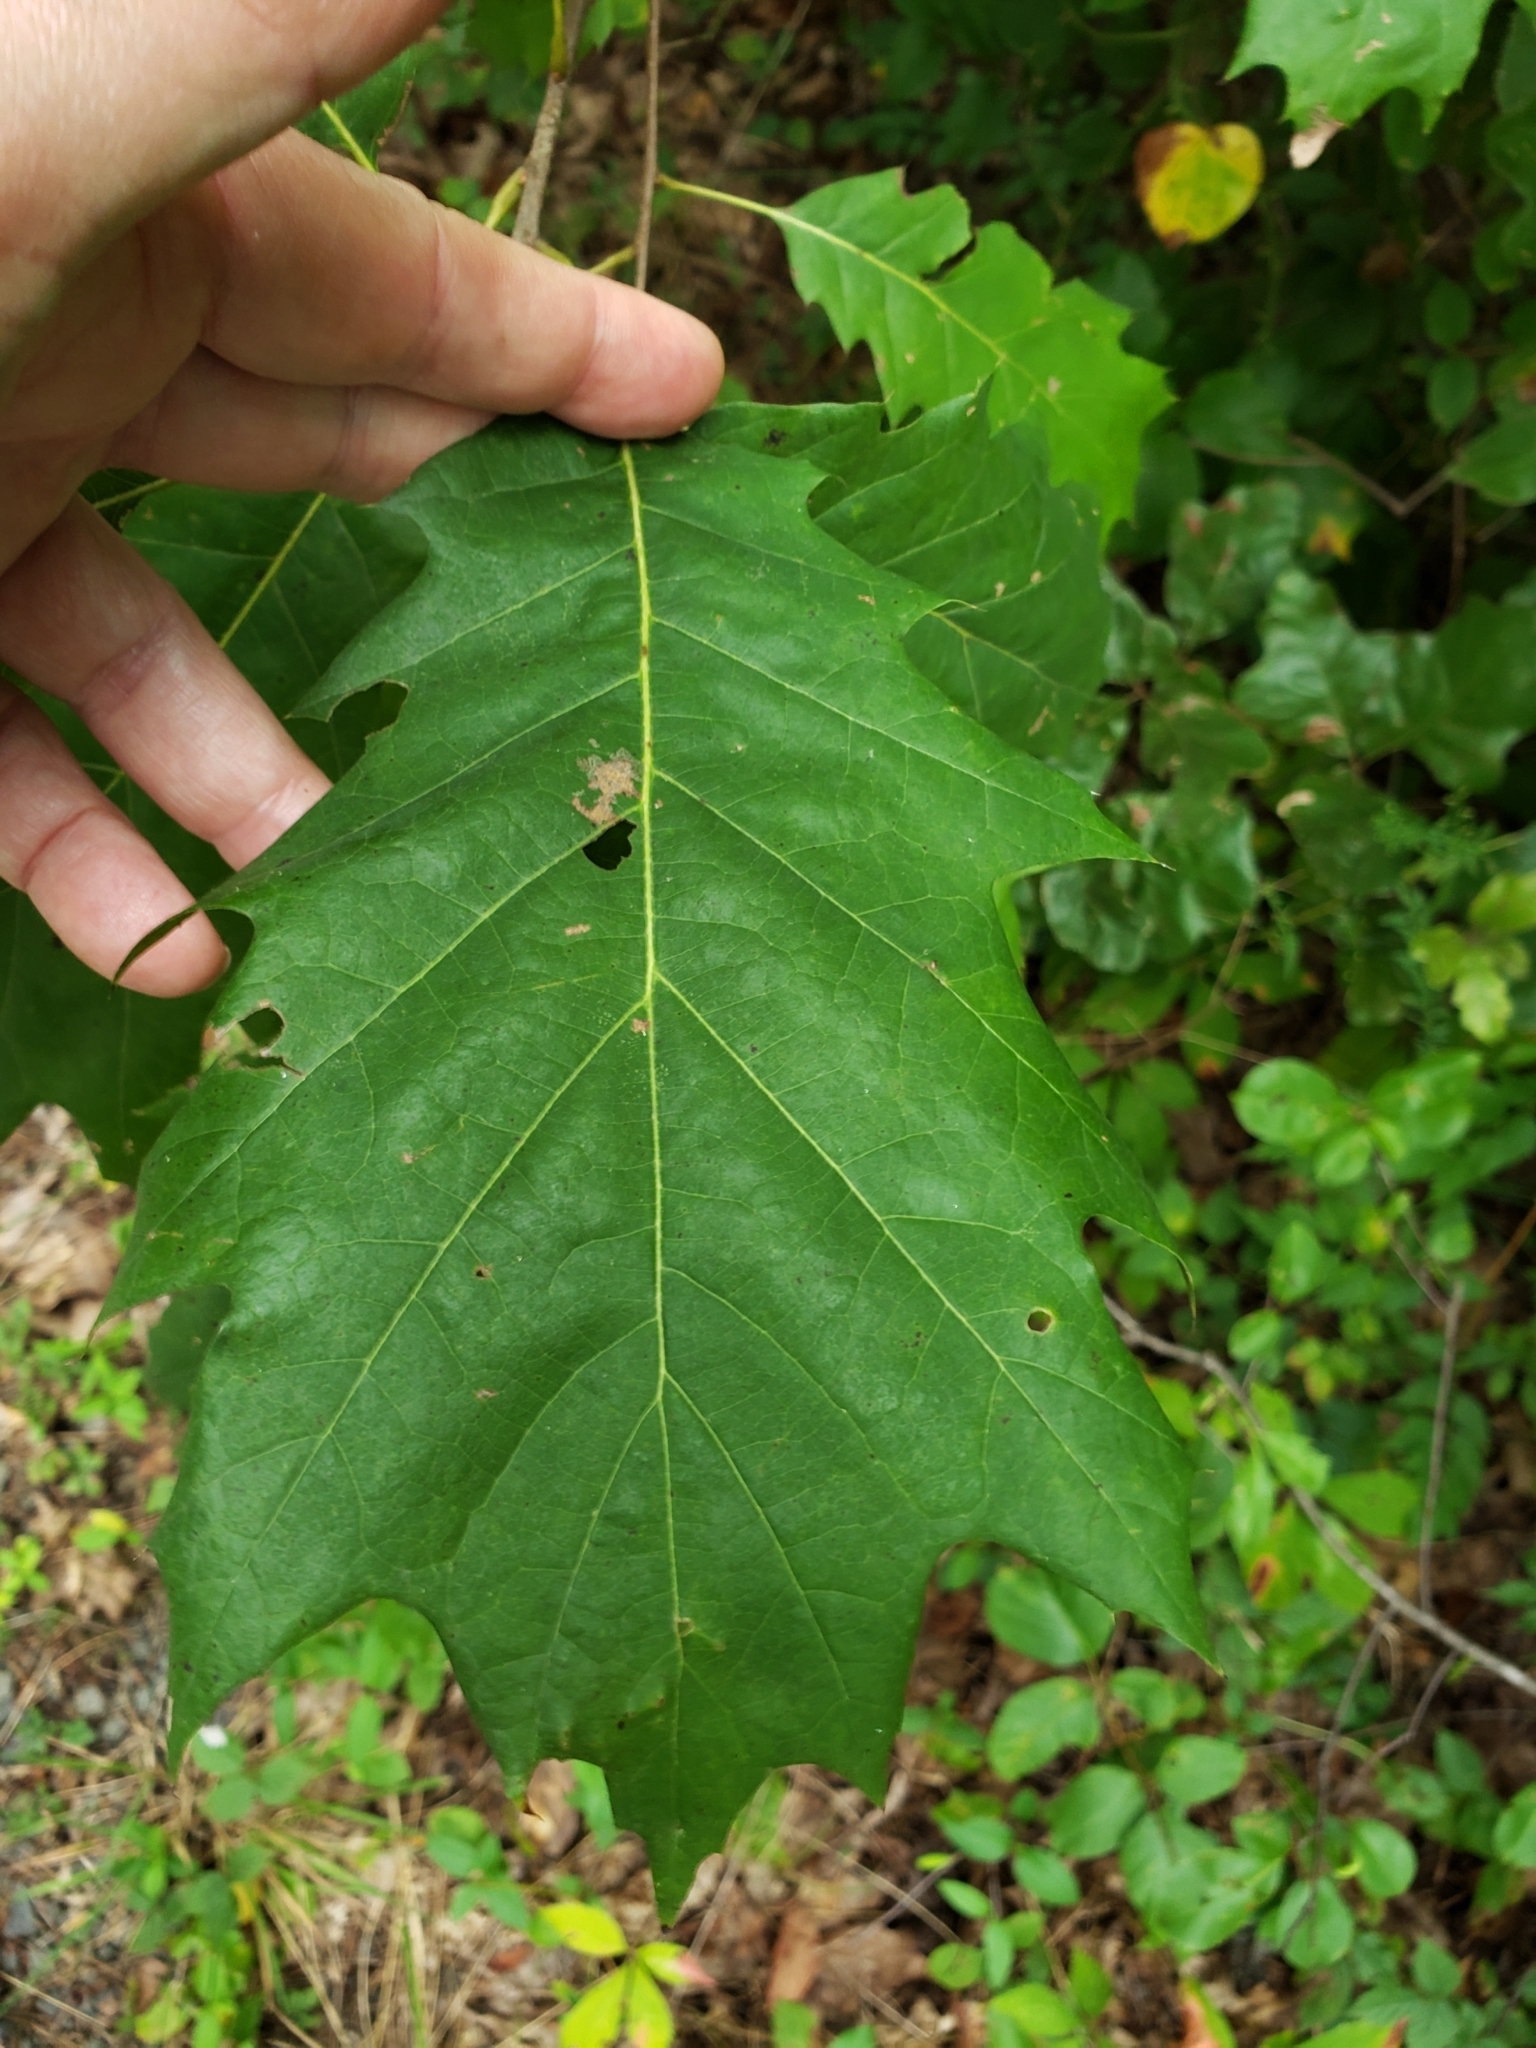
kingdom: Animalia
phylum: Arthropoda
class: Insecta
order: Hymenoptera
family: Cynipidae
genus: Callirhytis
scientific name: Callirhytis
